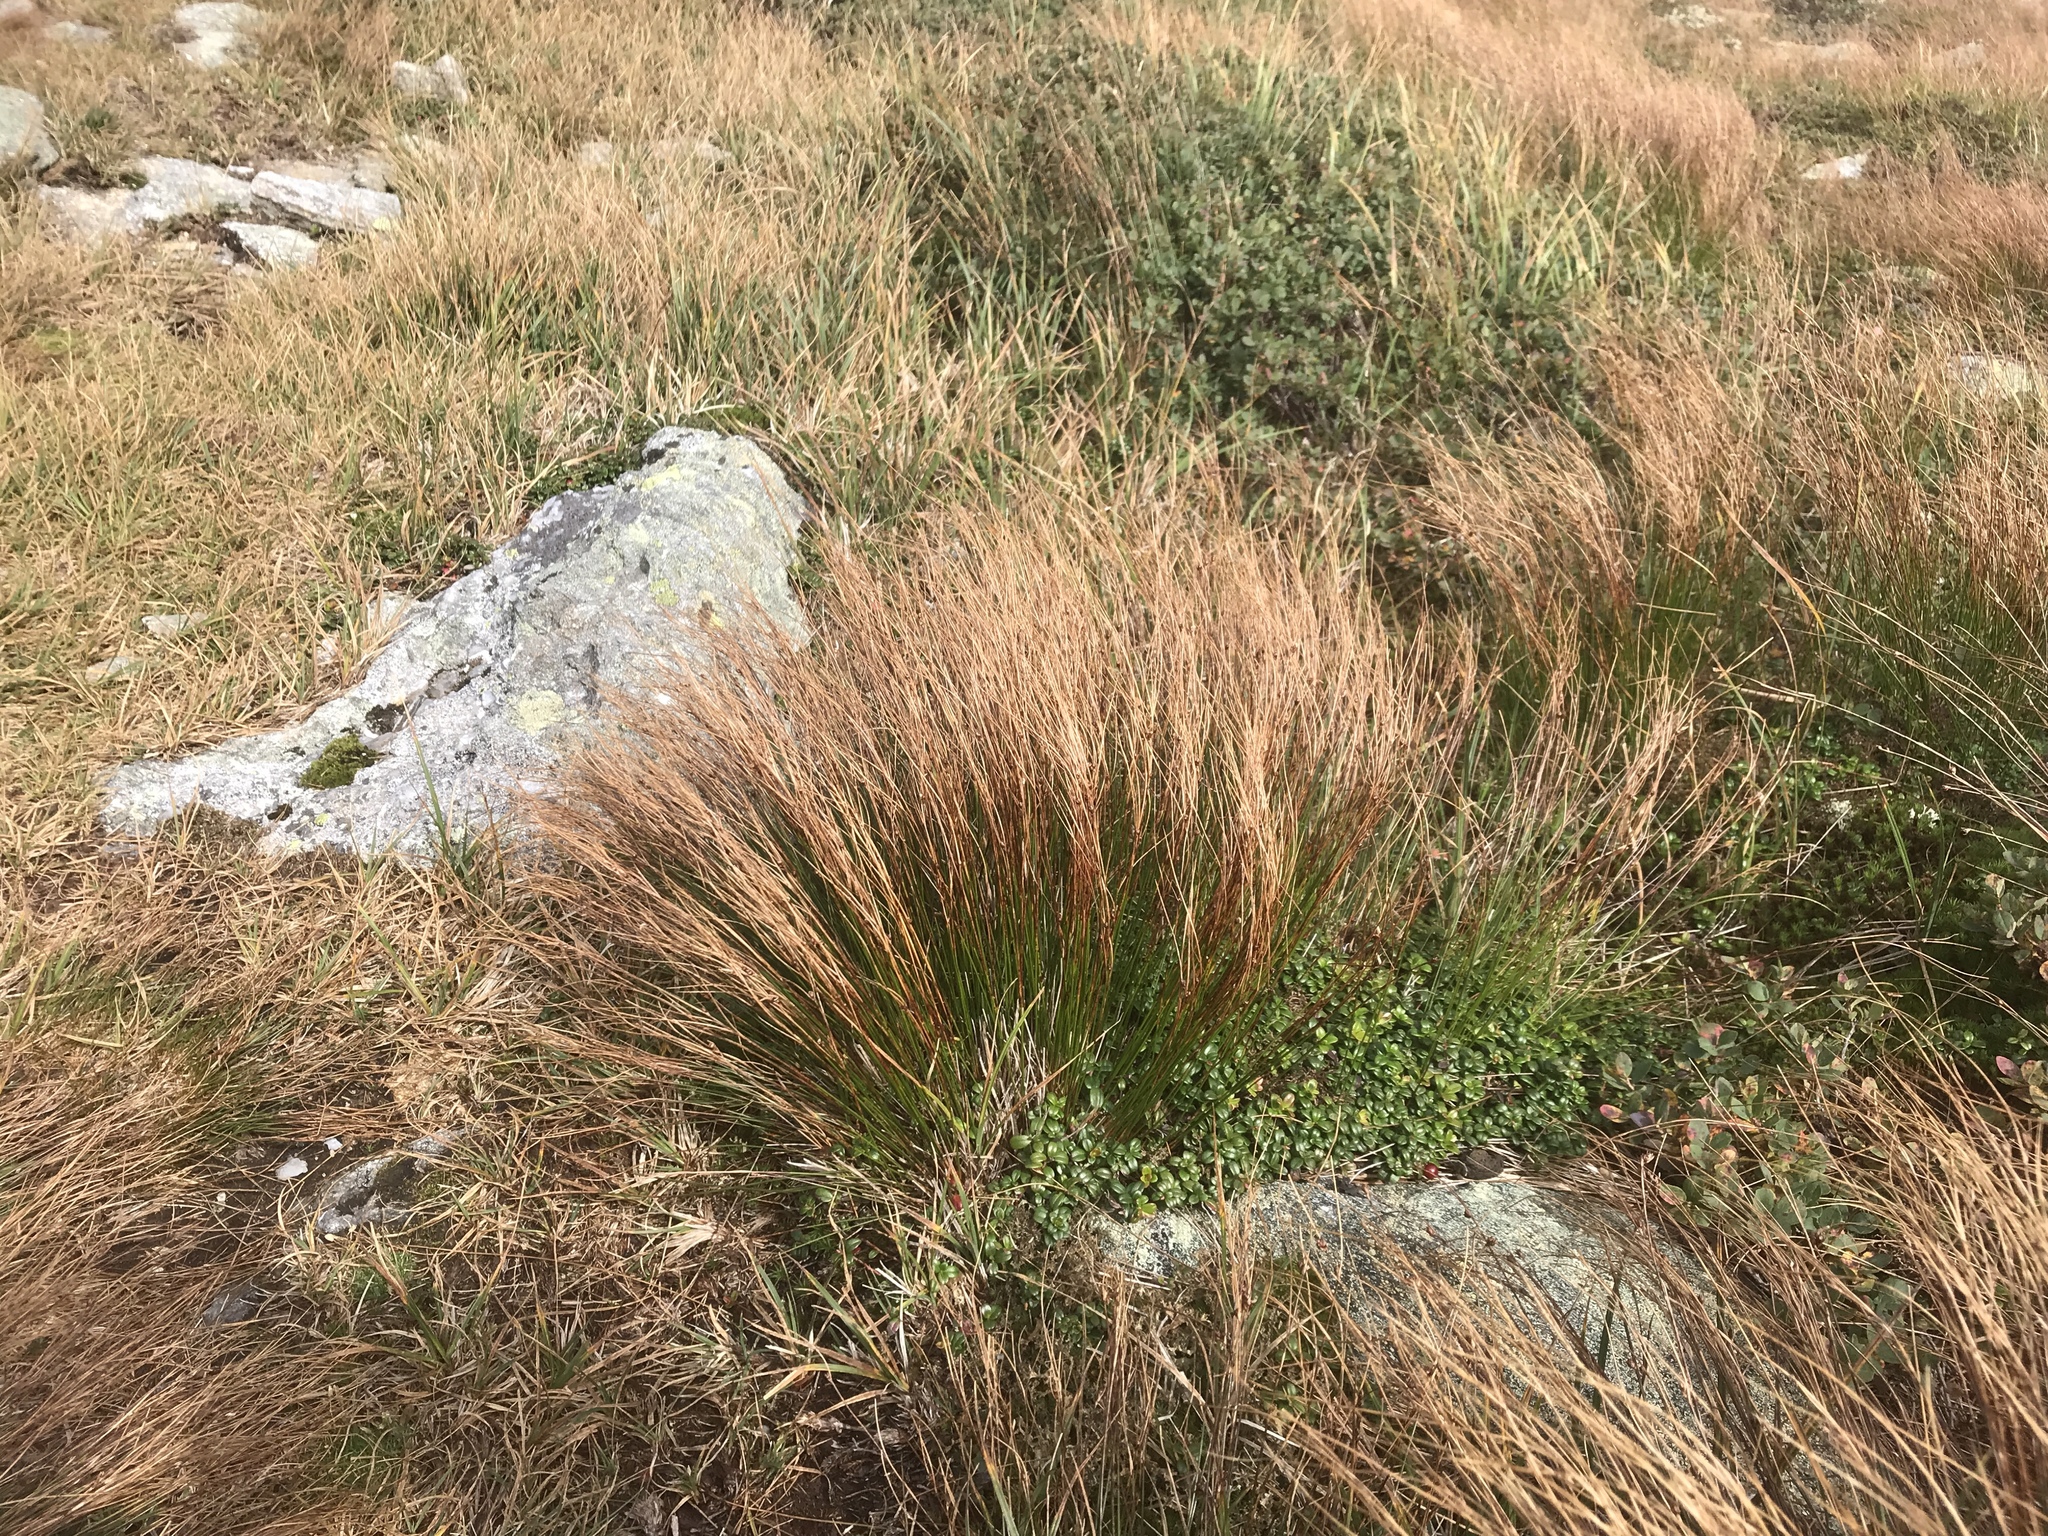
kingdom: Plantae
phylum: Tracheophyta
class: Liliopsida
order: Poales
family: Juncaceae
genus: Oreojuncus
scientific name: Oreojuncus trifidus
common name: Highland rush
